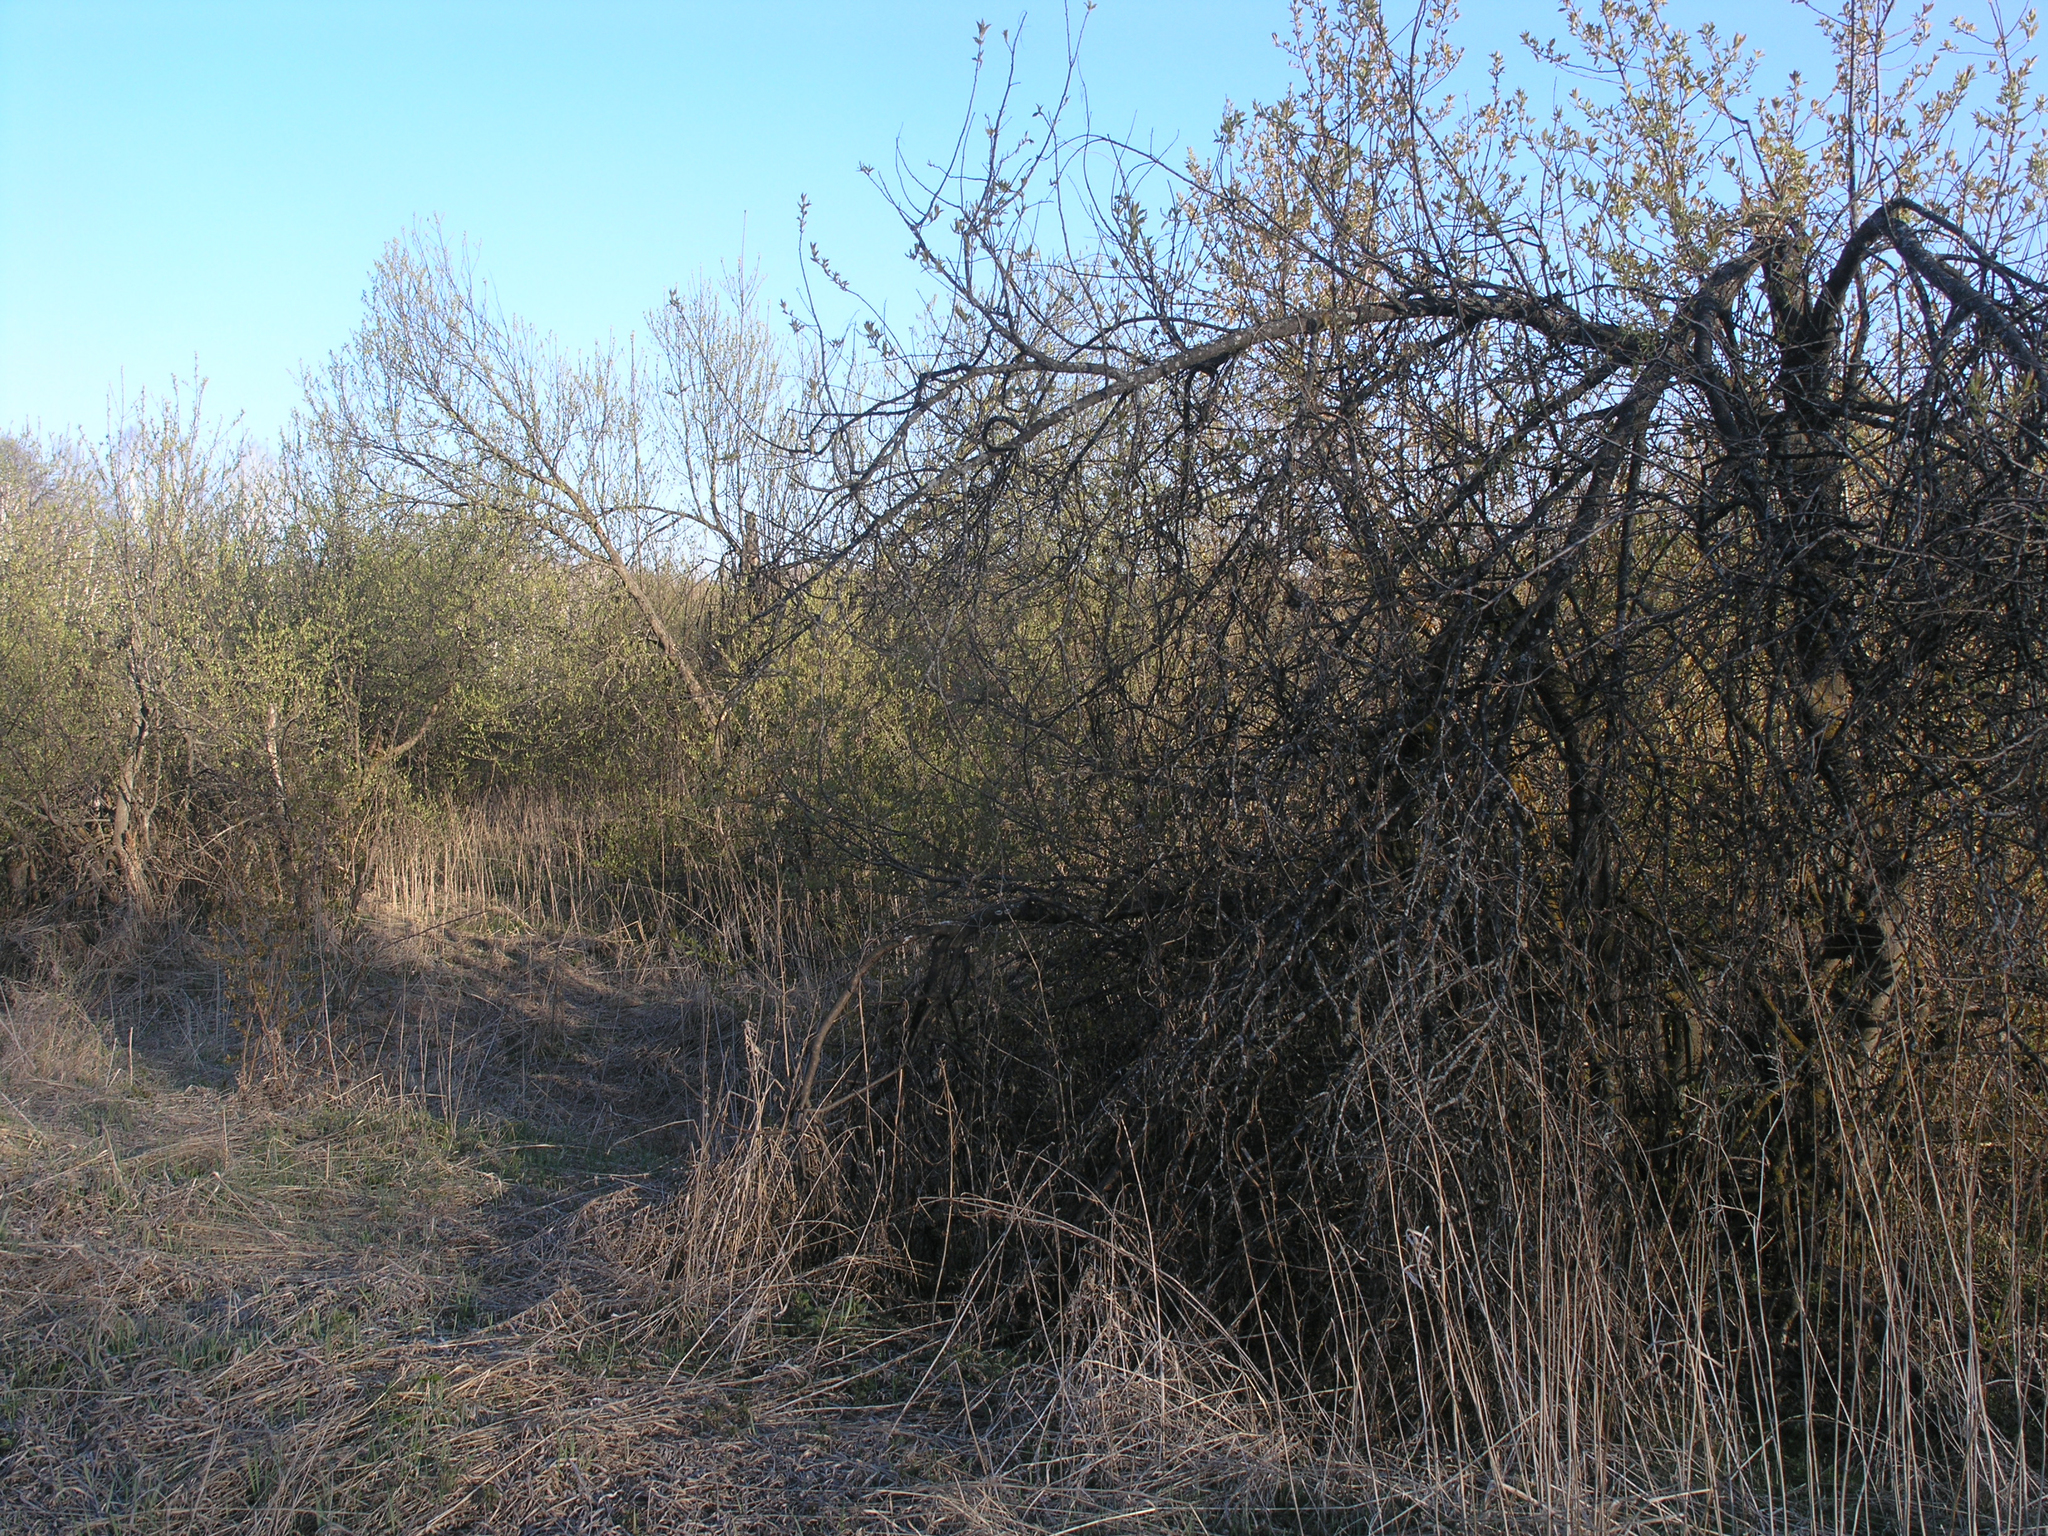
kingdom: Plantae
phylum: Tracheophyta
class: Magnoliopsida
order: Rosales
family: Rosaceae
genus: Prunus
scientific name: Prunus padus
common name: Bird cherry
